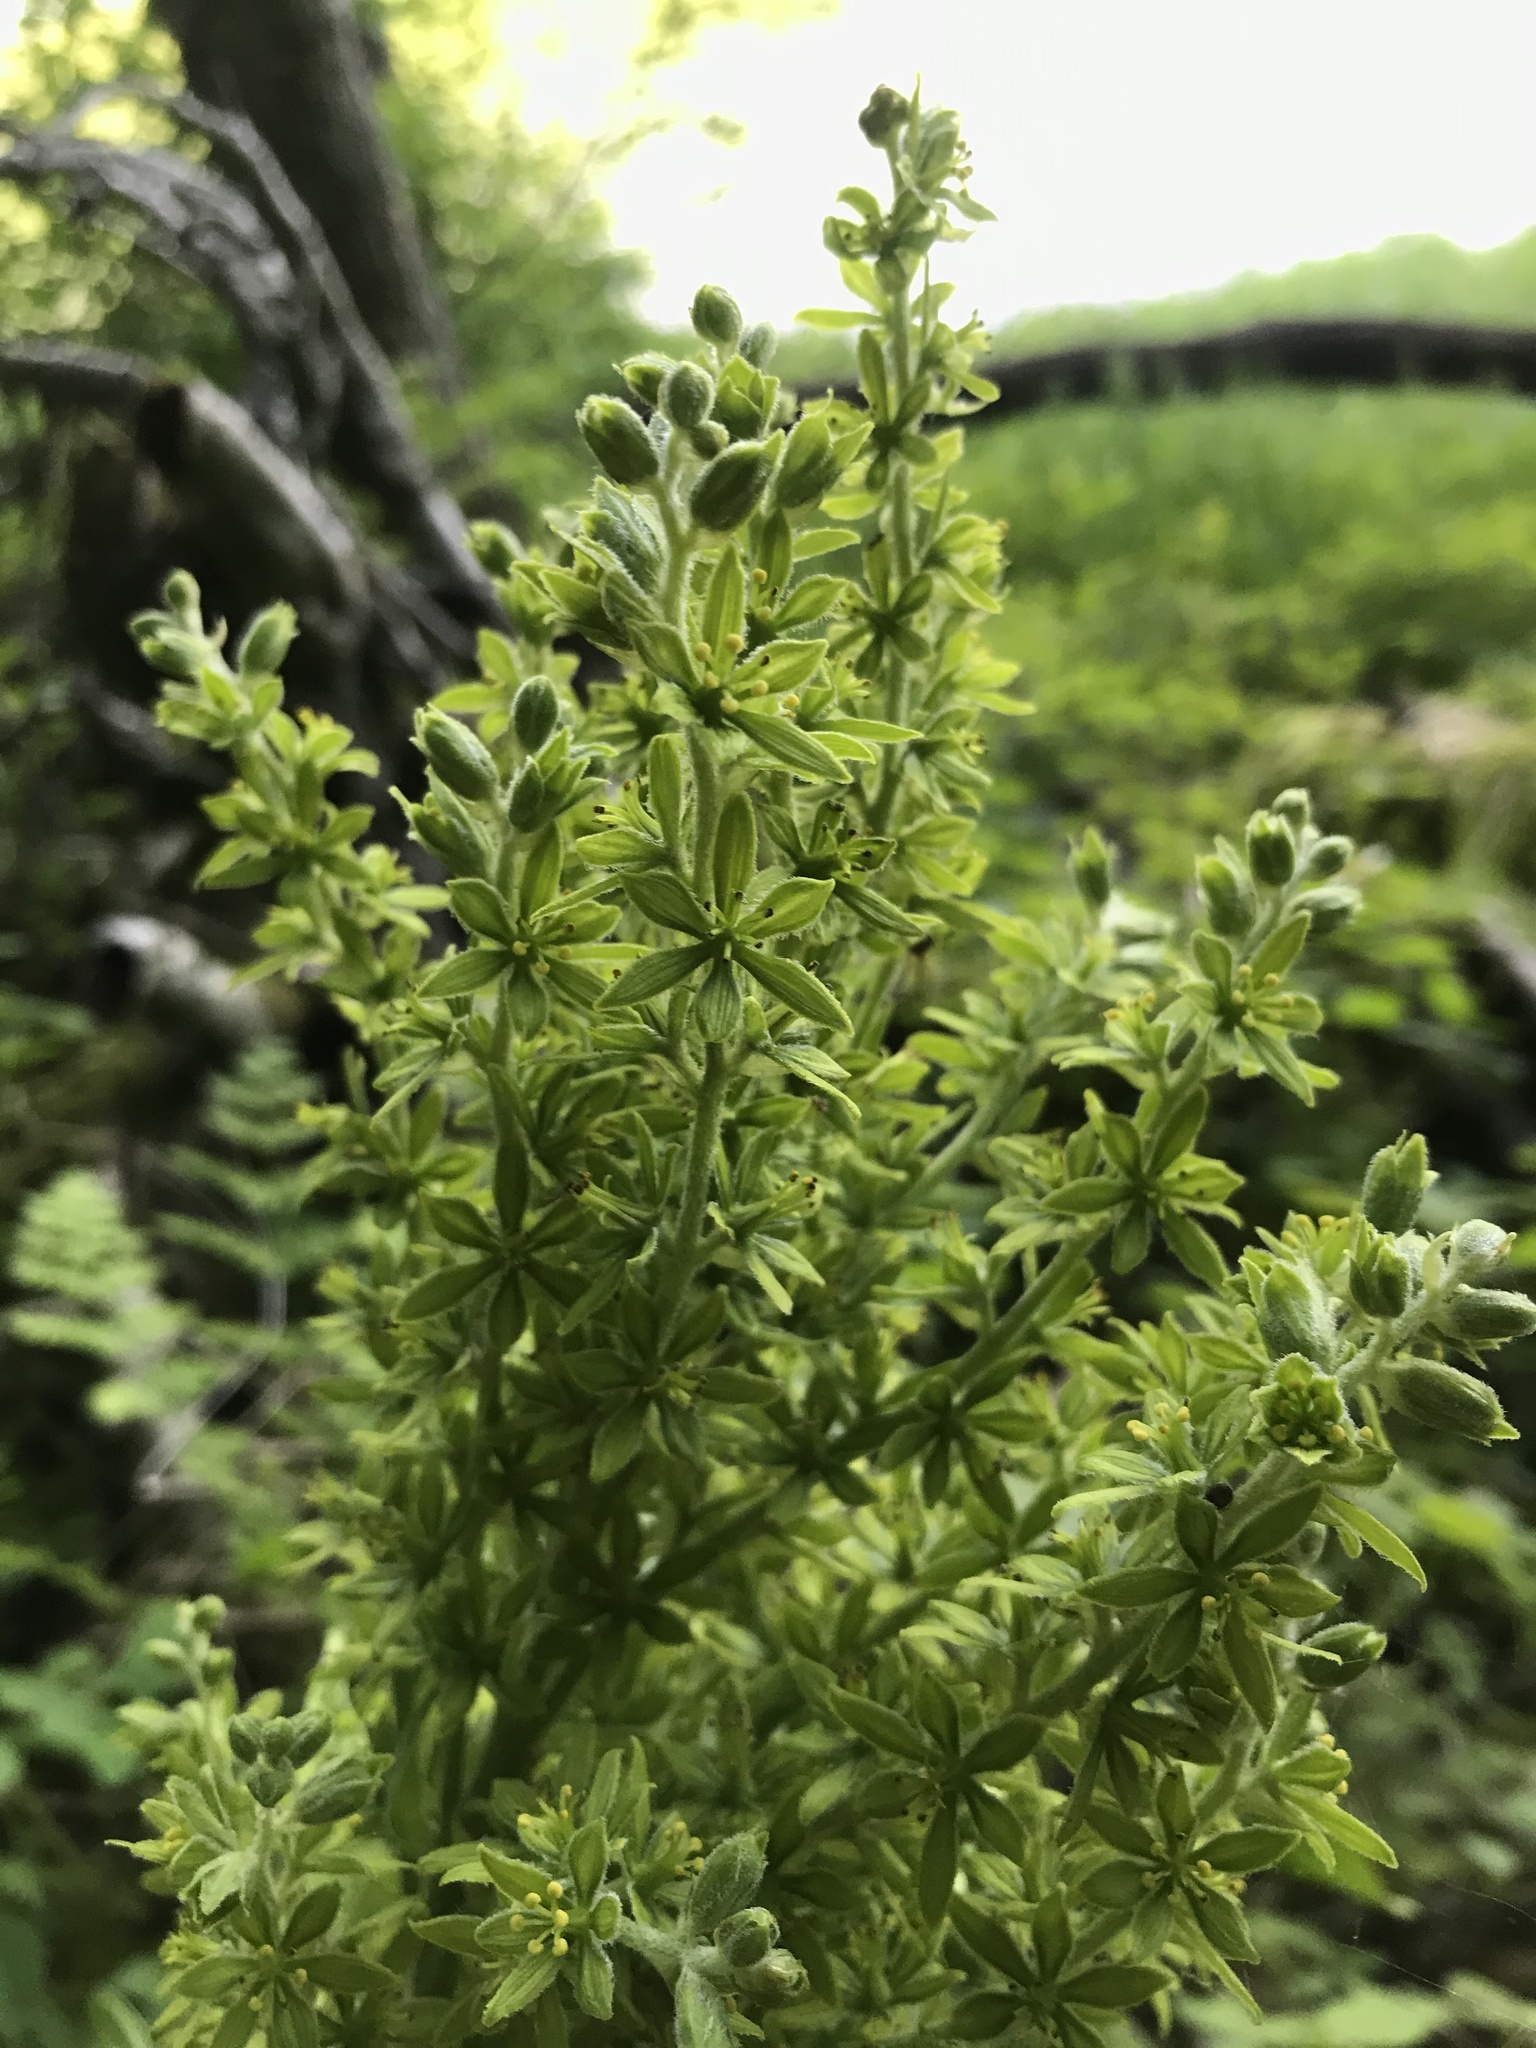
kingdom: Plantae
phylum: Tracheophyta
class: Liliopsida
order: Liliales
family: Melanthiaceae
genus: Veratrum
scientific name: Veratrum viride
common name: American false hellebore
